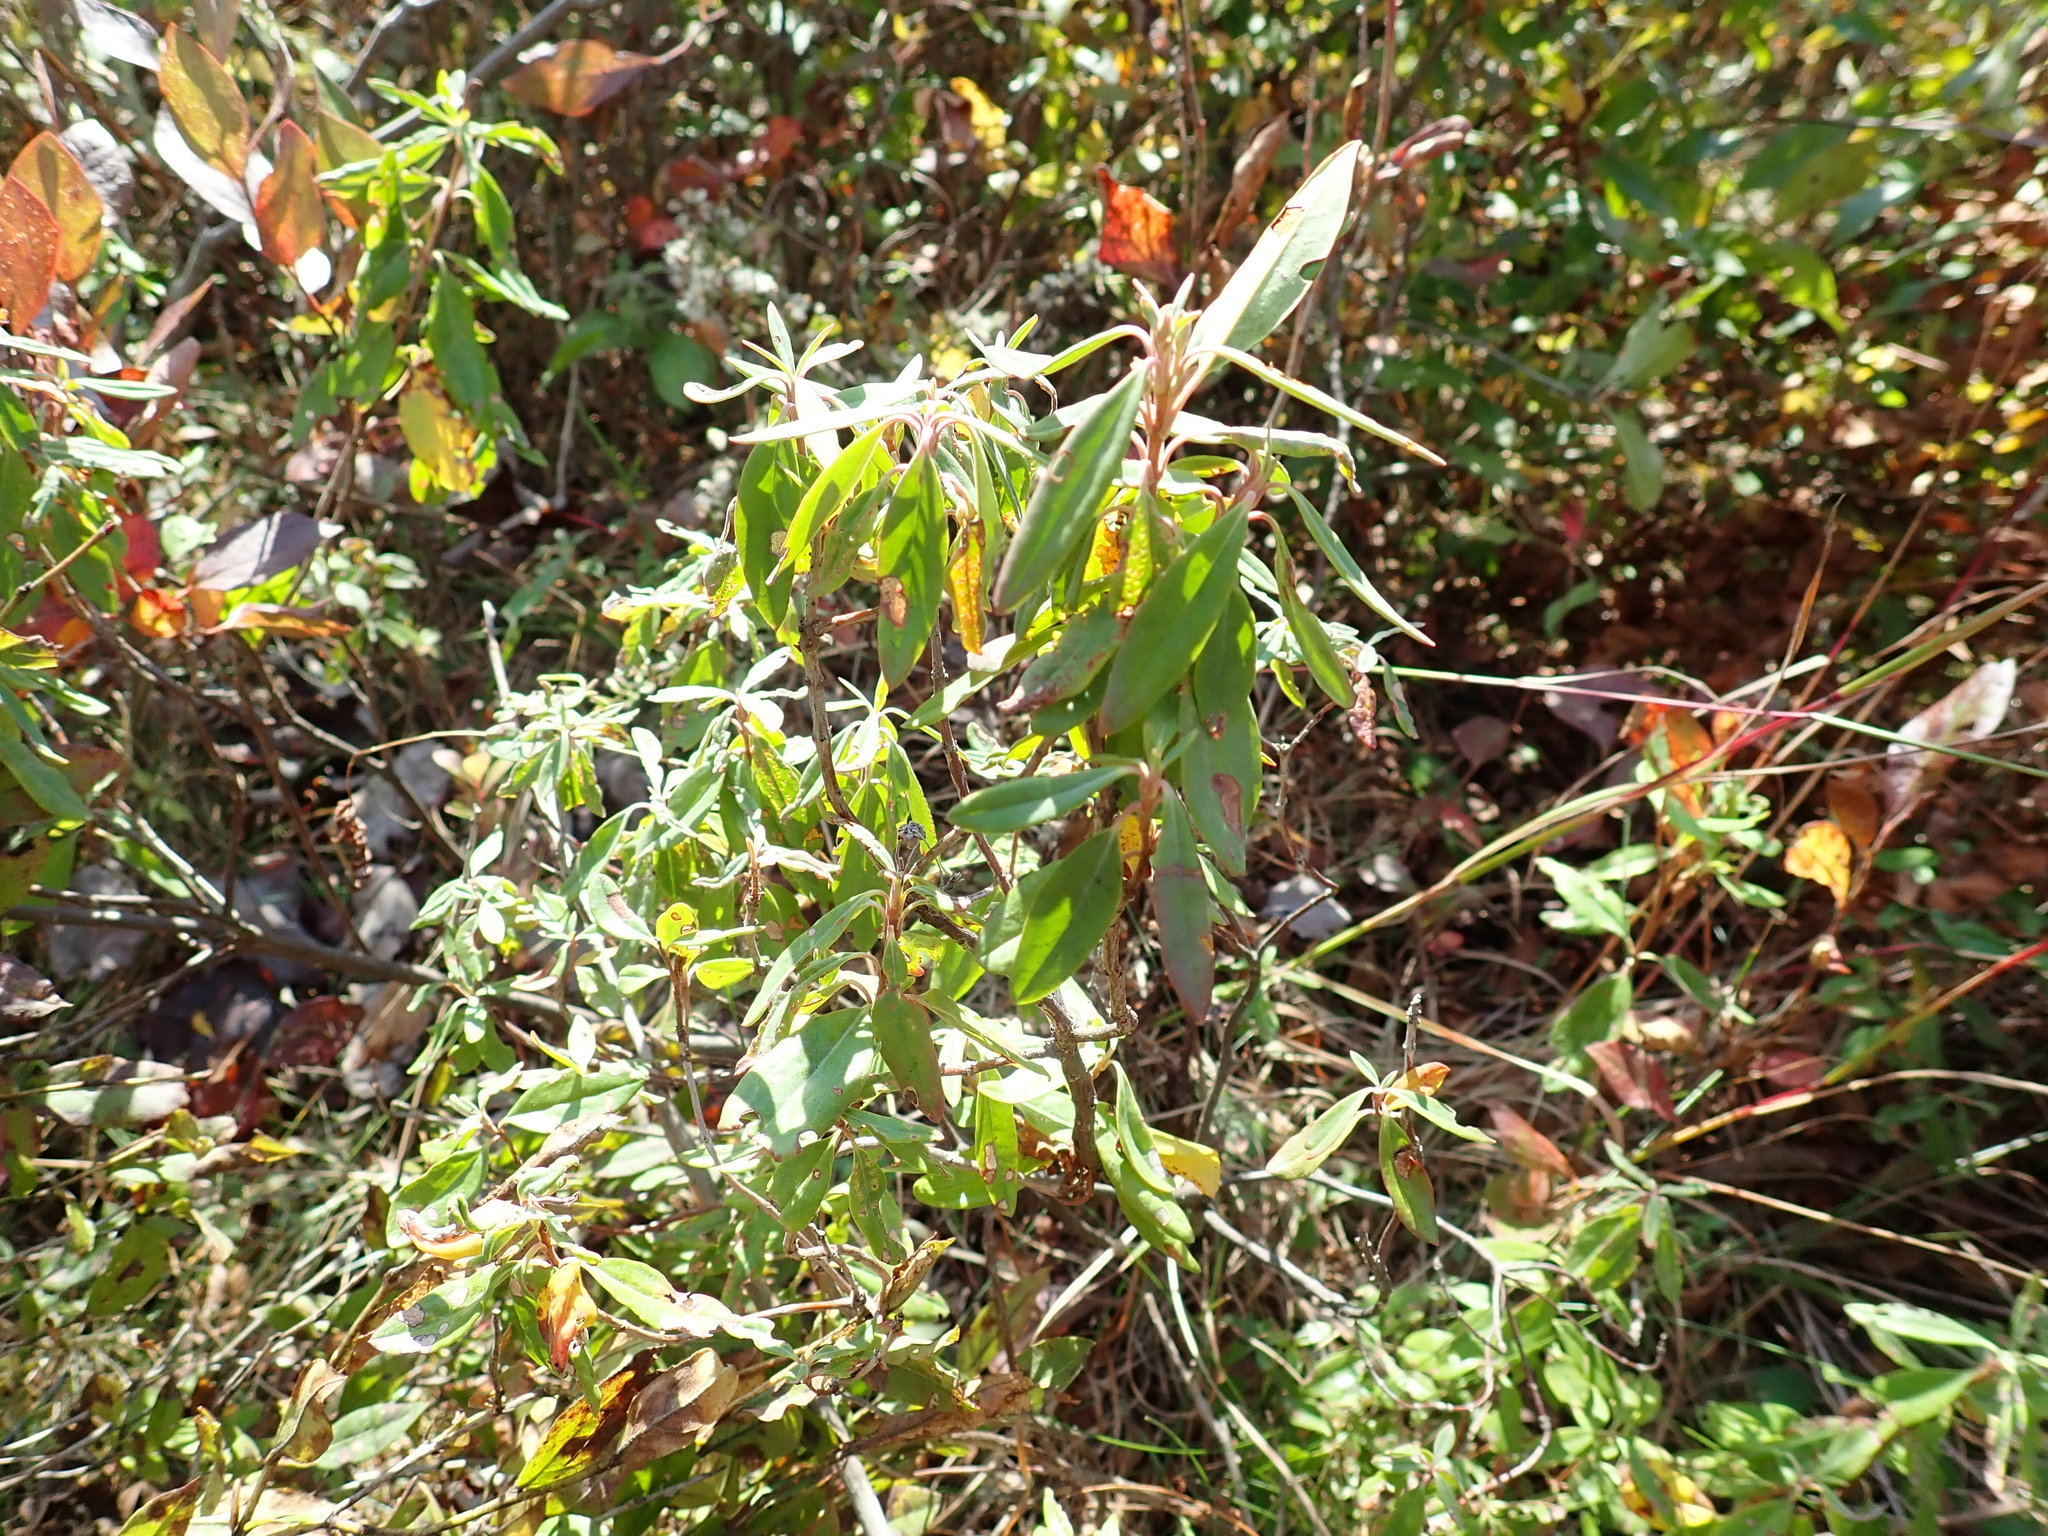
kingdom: Plantae
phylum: Tracheophyta
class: Magnoliopsida
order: Ericales
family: Ericaceae
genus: Kalmia
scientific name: Kalmia angustifolia
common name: Sheep-laurel
